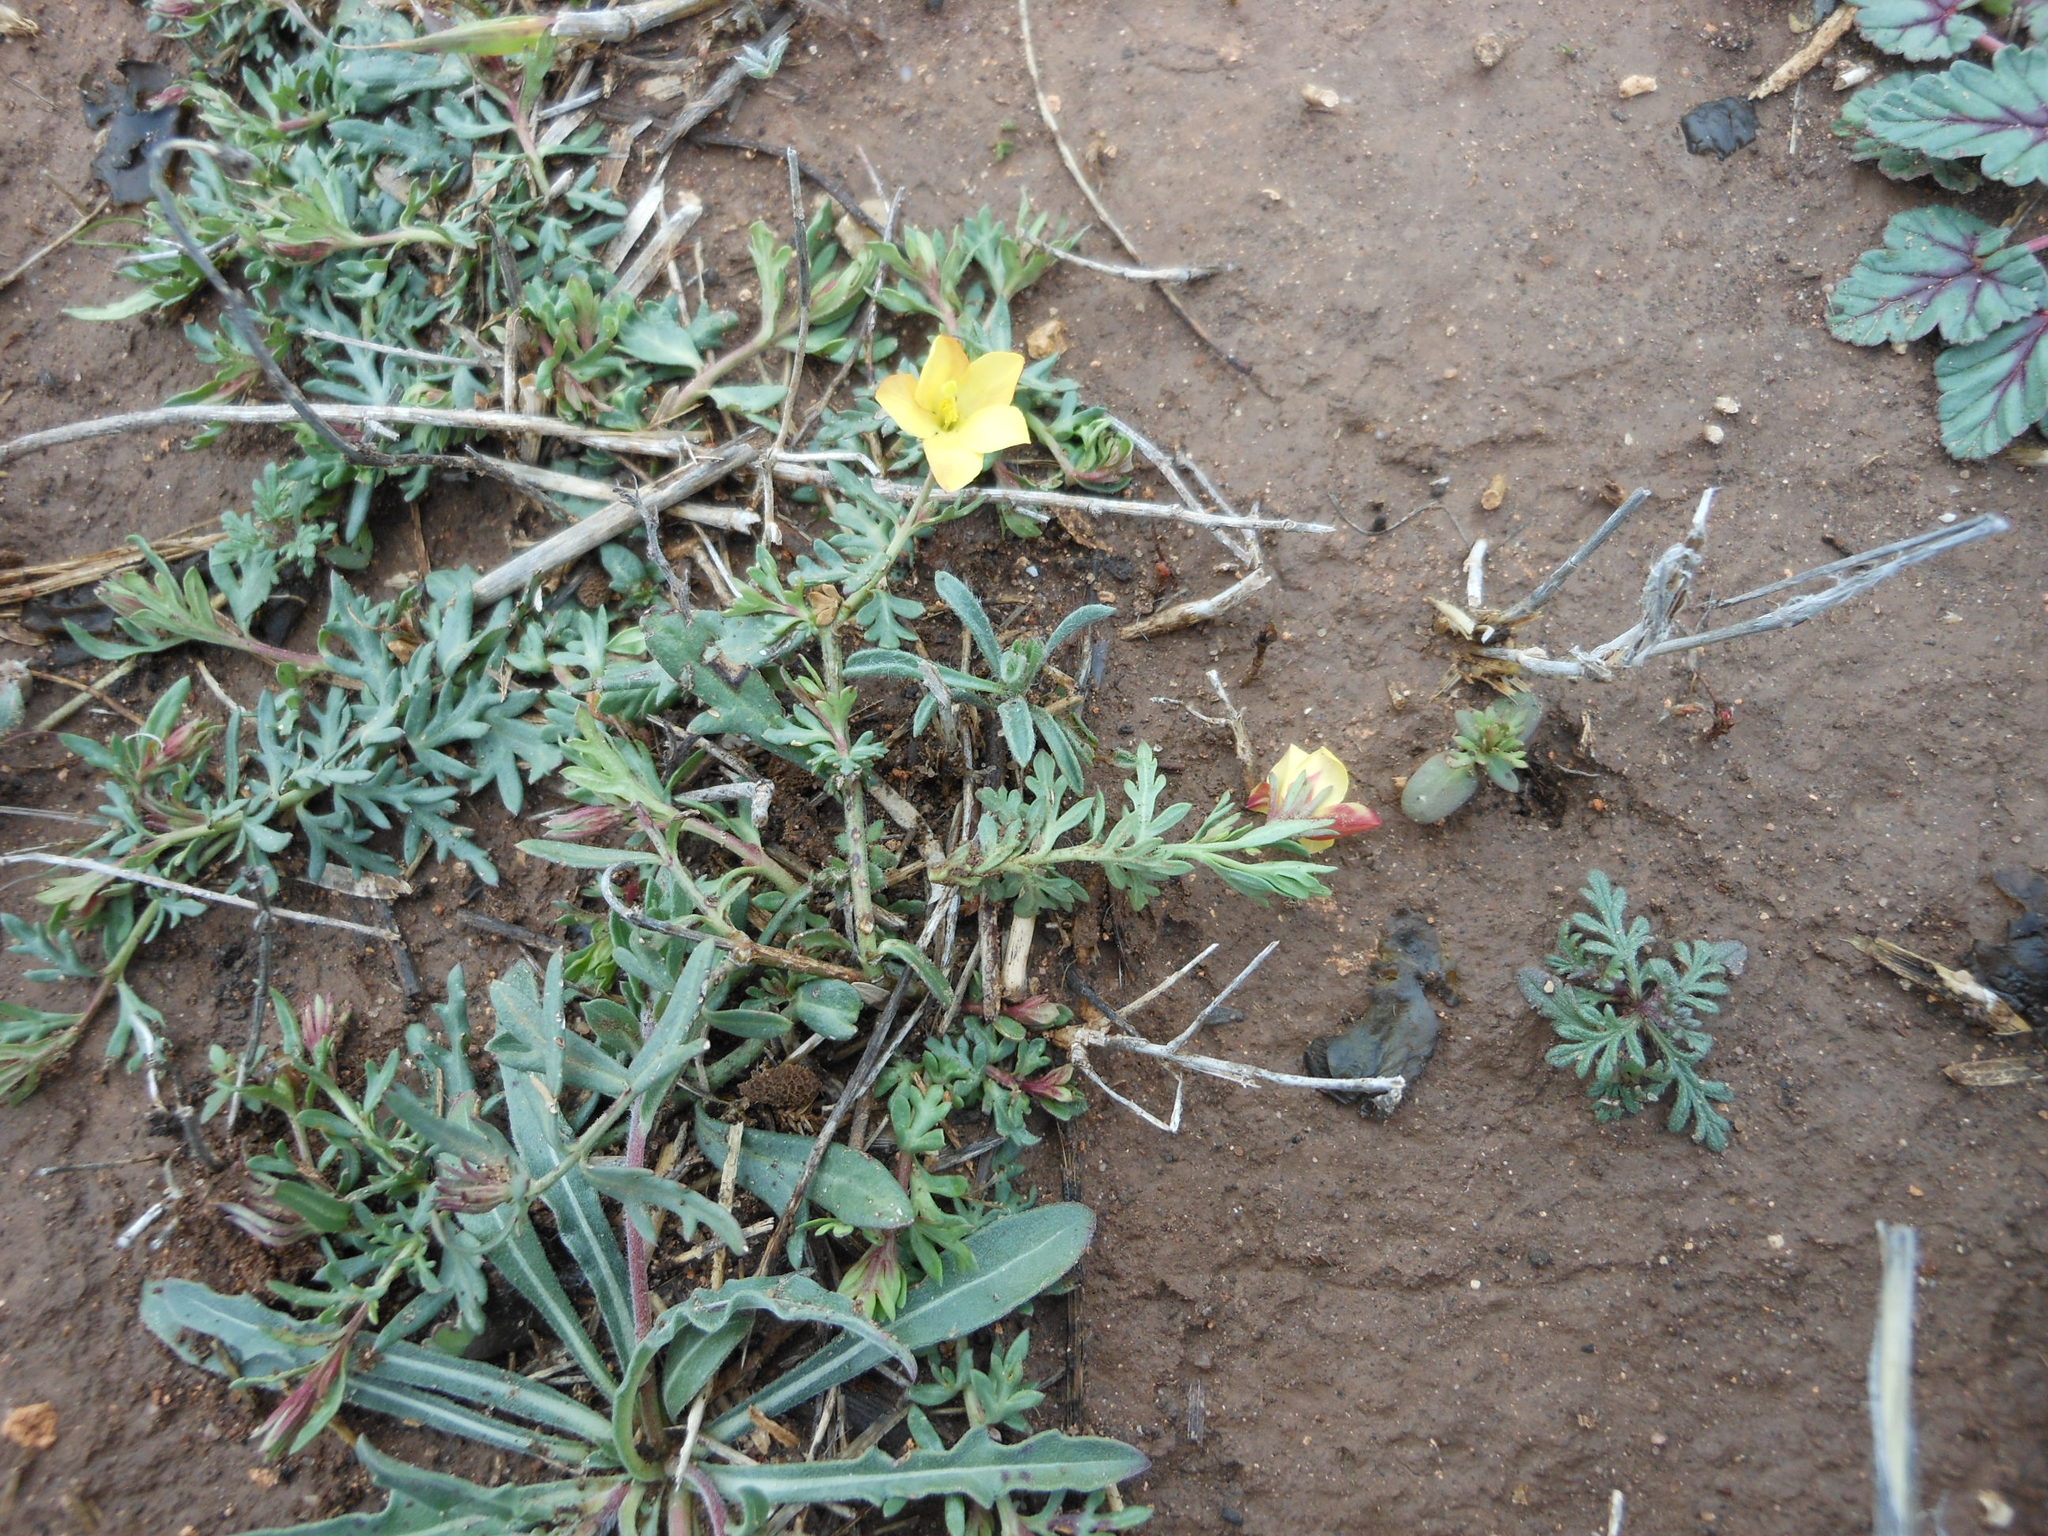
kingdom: Plantae
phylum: Tracheophyta
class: Magnoliopsida
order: Lamiales
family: Oleaceae
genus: Menodora
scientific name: Menodora heterophylla
